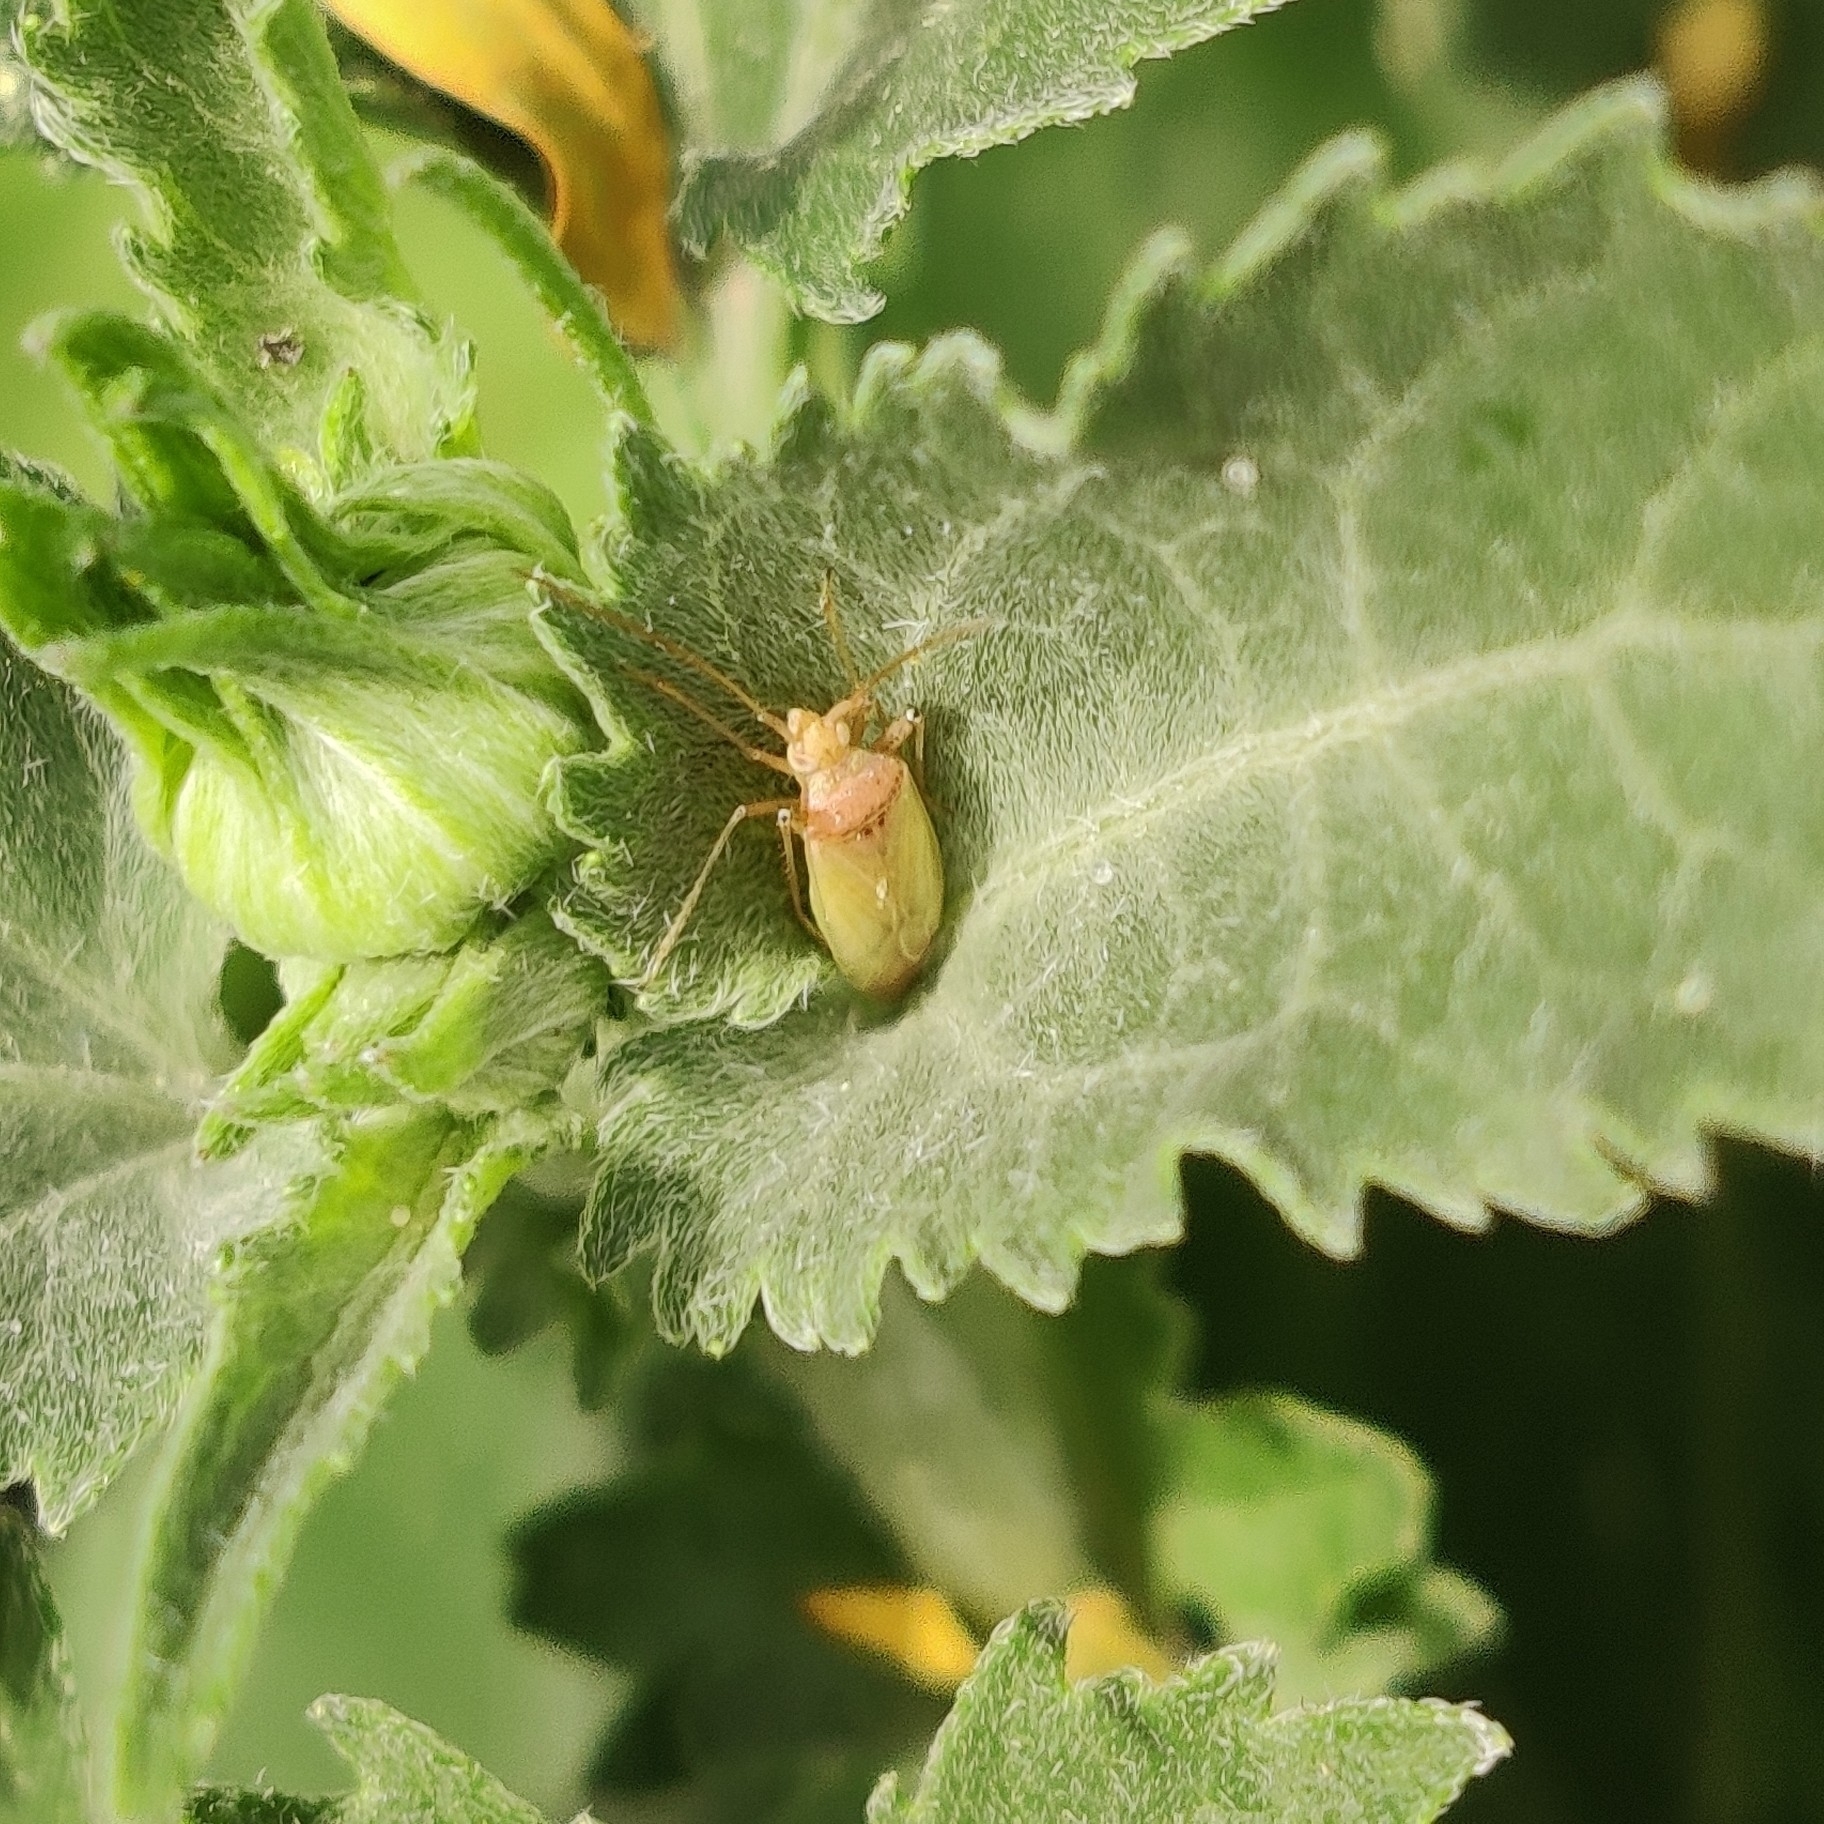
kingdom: Animalia
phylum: Arthropoda
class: Insecta
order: Hemiptera
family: Miridae
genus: Creontiades
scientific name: Creontiades pacificus
